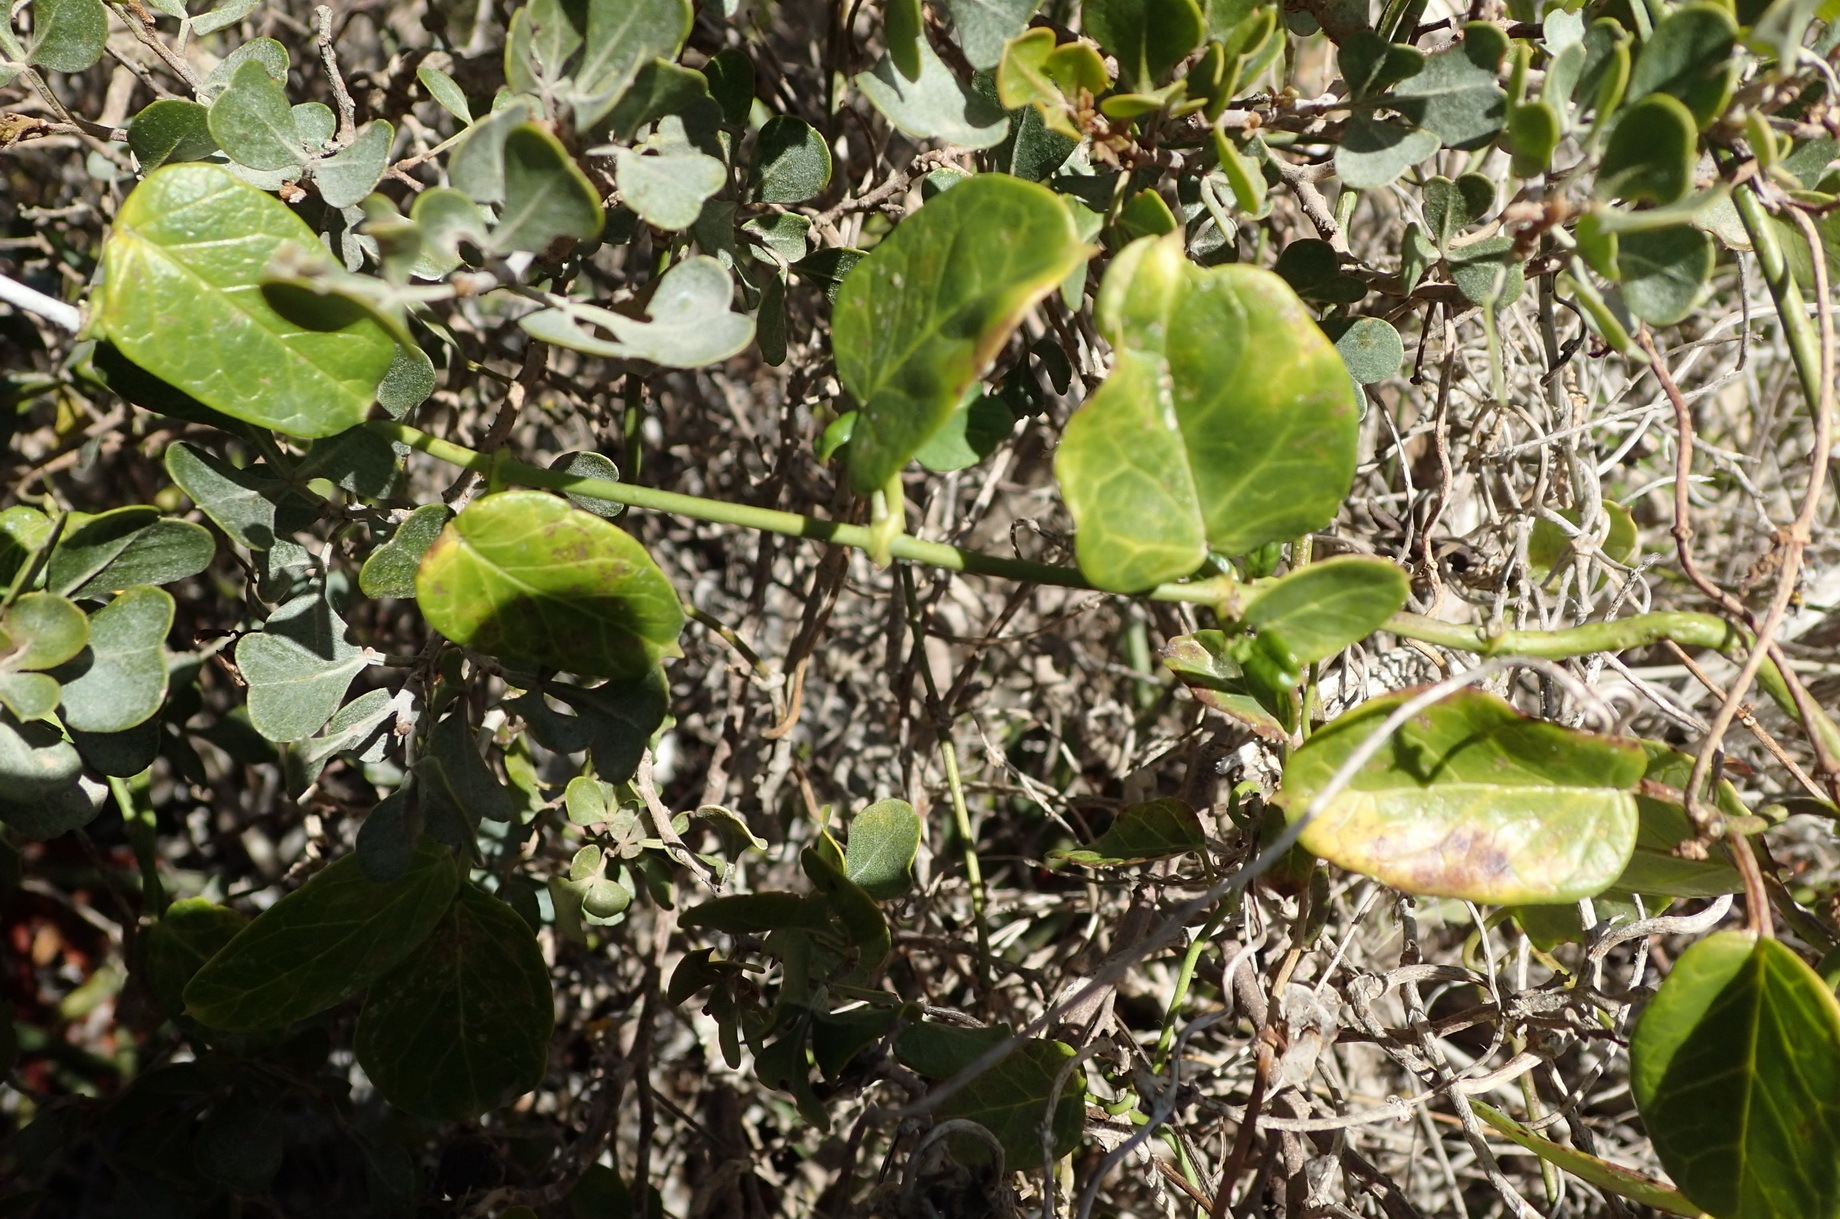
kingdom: Plantae
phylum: Tracheophyta
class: Magnoliopsida
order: Gentianales
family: Apocynaceae
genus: Cynanchum
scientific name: Cynanchum obtusifolium
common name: Monkey-rope
